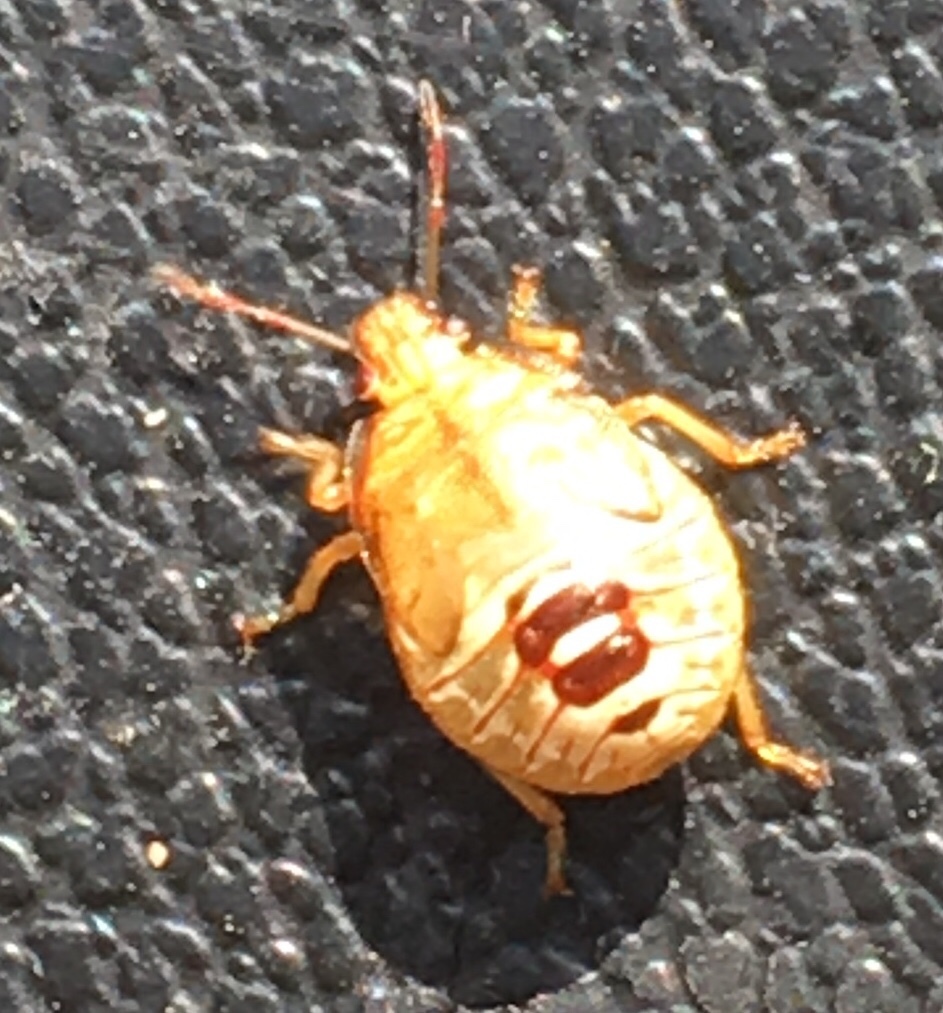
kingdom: Animalia
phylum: Arthropoda
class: Insecta
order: Hemiptera
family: Pentatomidae
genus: Podisus
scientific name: Podisus maculiventris
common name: Spined soldier bug
